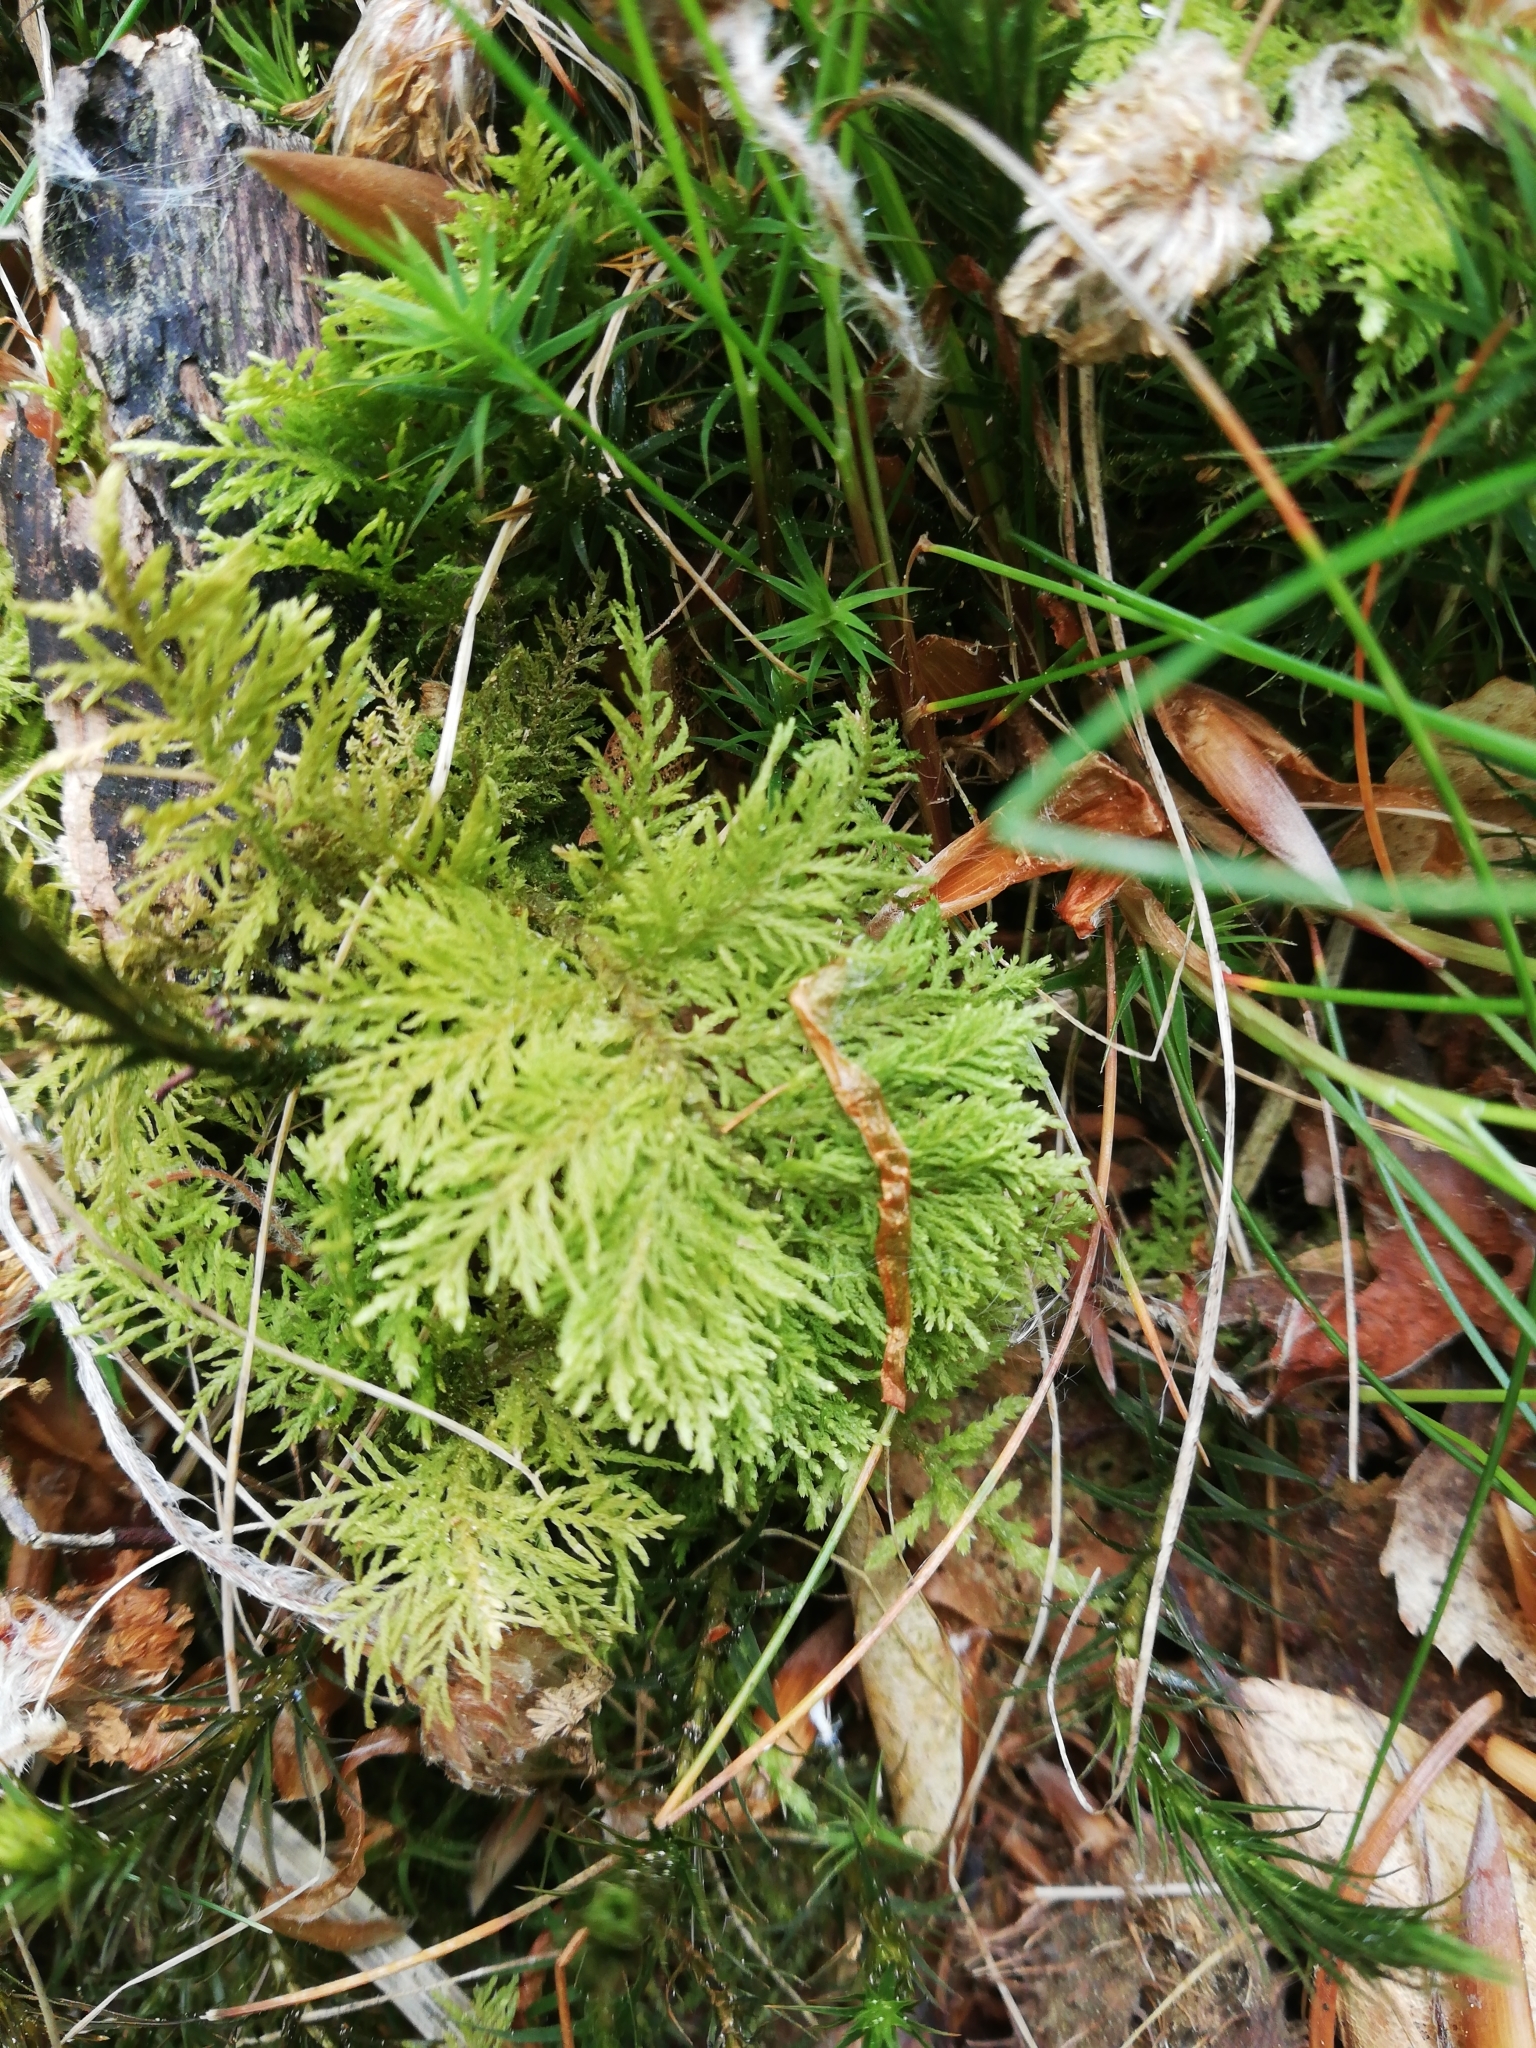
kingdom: Plantae
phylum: Bryophyta
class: Bryopsida
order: Hypnales
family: Thuidiaceae
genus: Thuidium
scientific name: Thuidium tamariscinum
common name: Common tamarisk-moss
